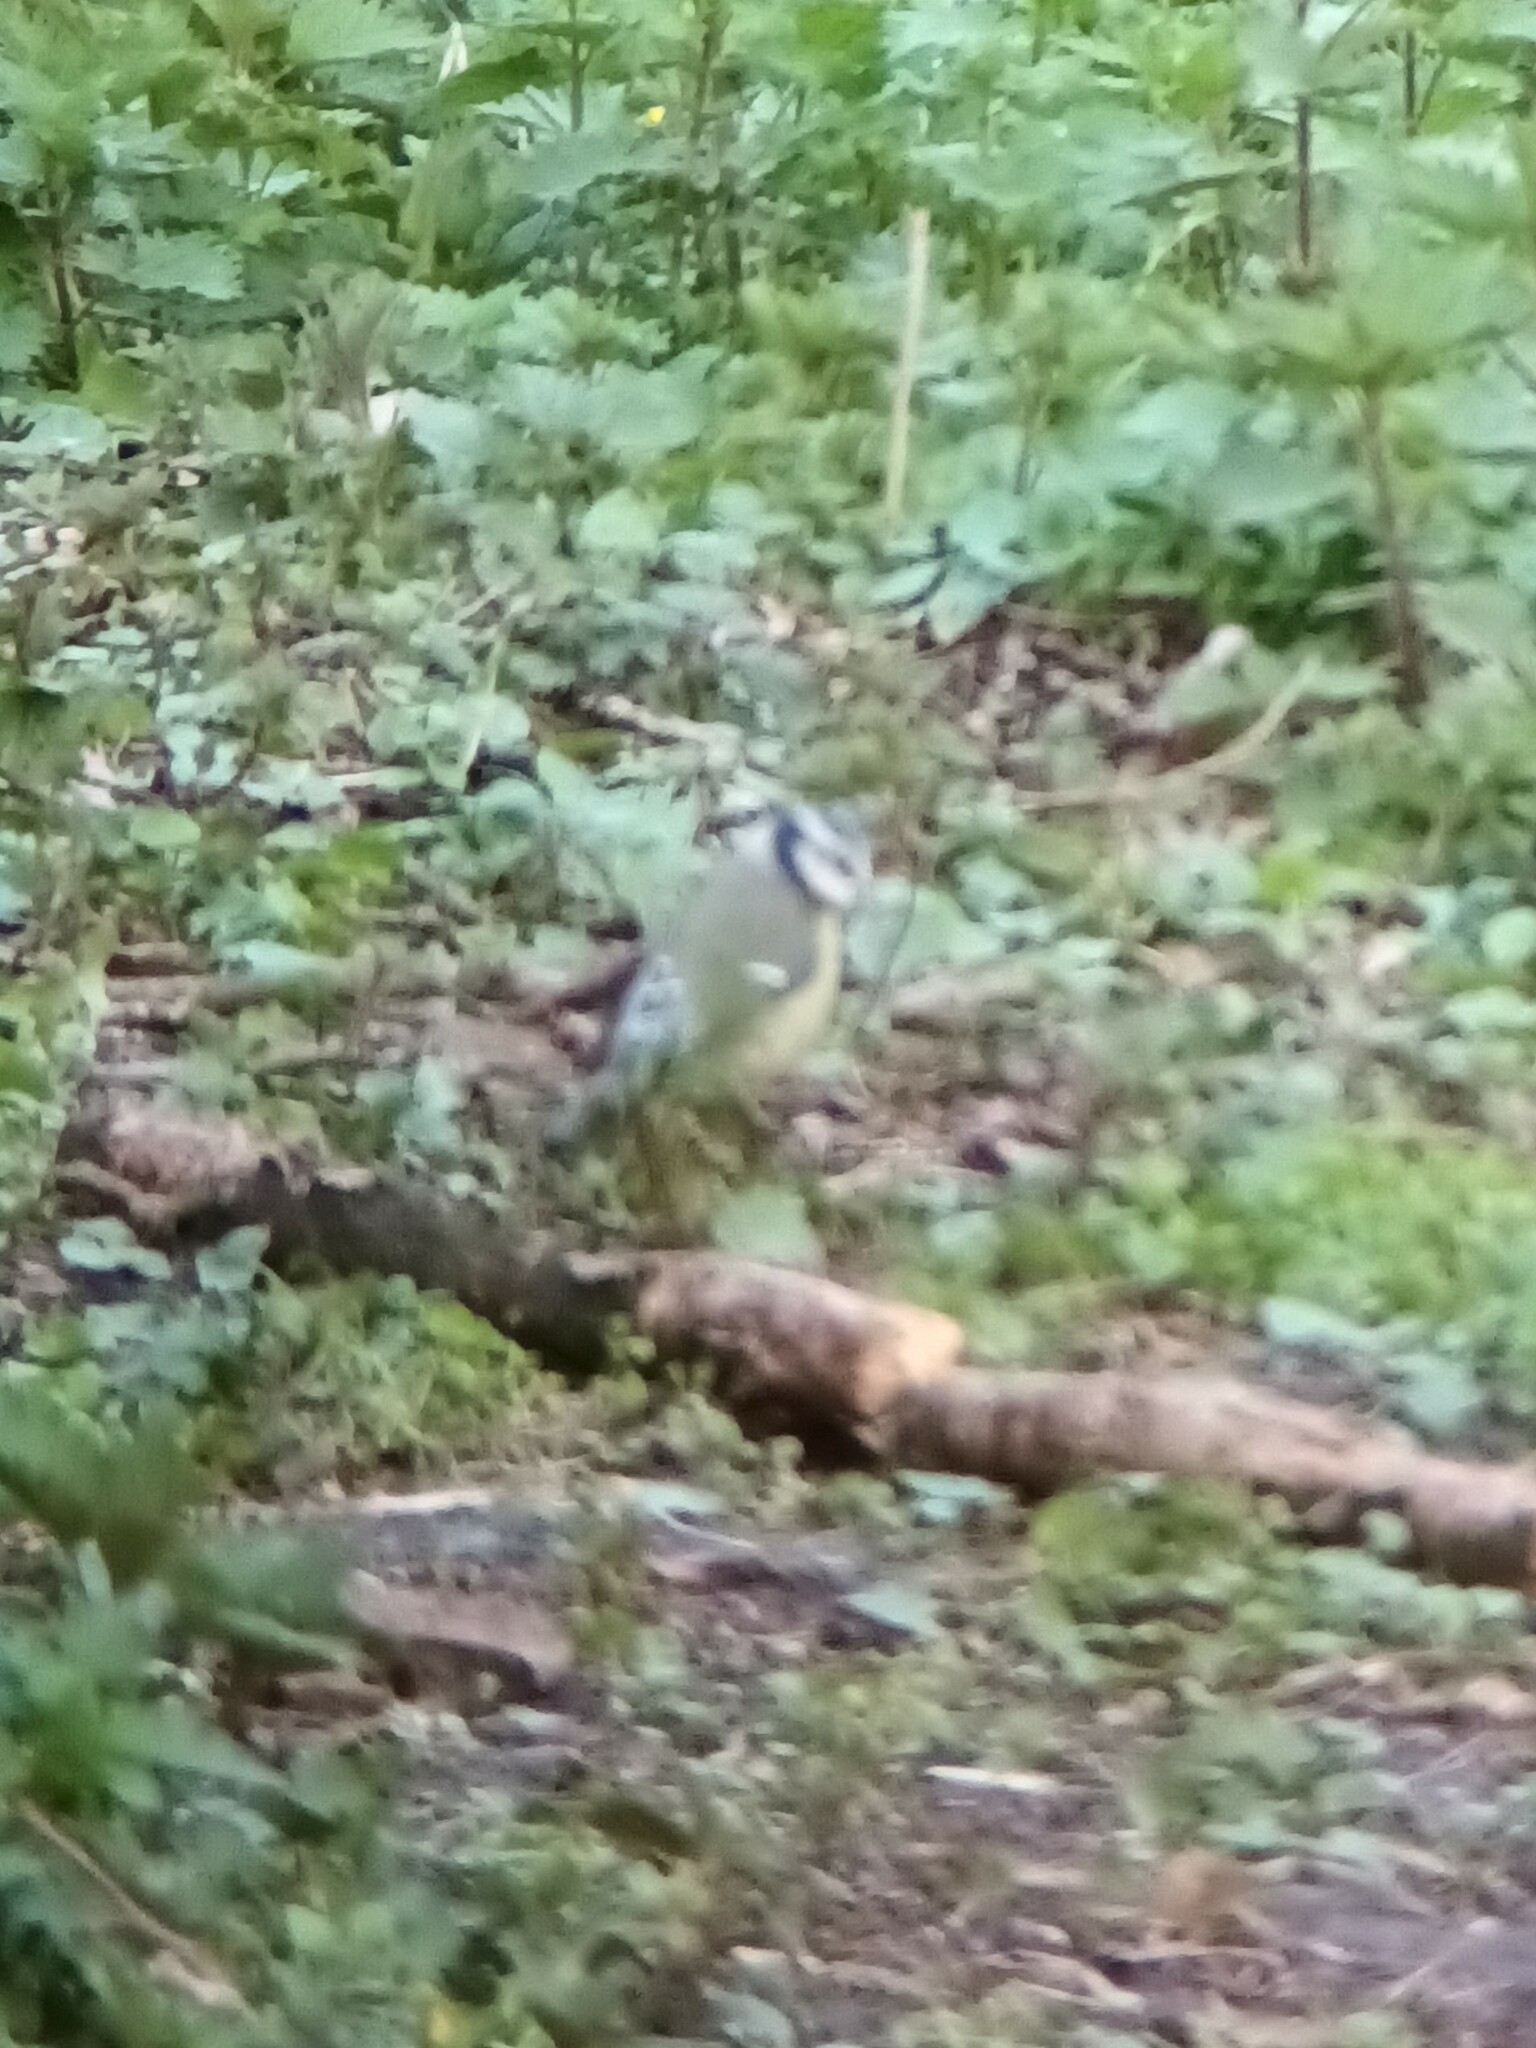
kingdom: Animalia
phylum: Chordata
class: Aves
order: Passeriformes
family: Paridae
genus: Cyanistes
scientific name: Cyanistes caeruleus
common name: Eurasian blue tit
